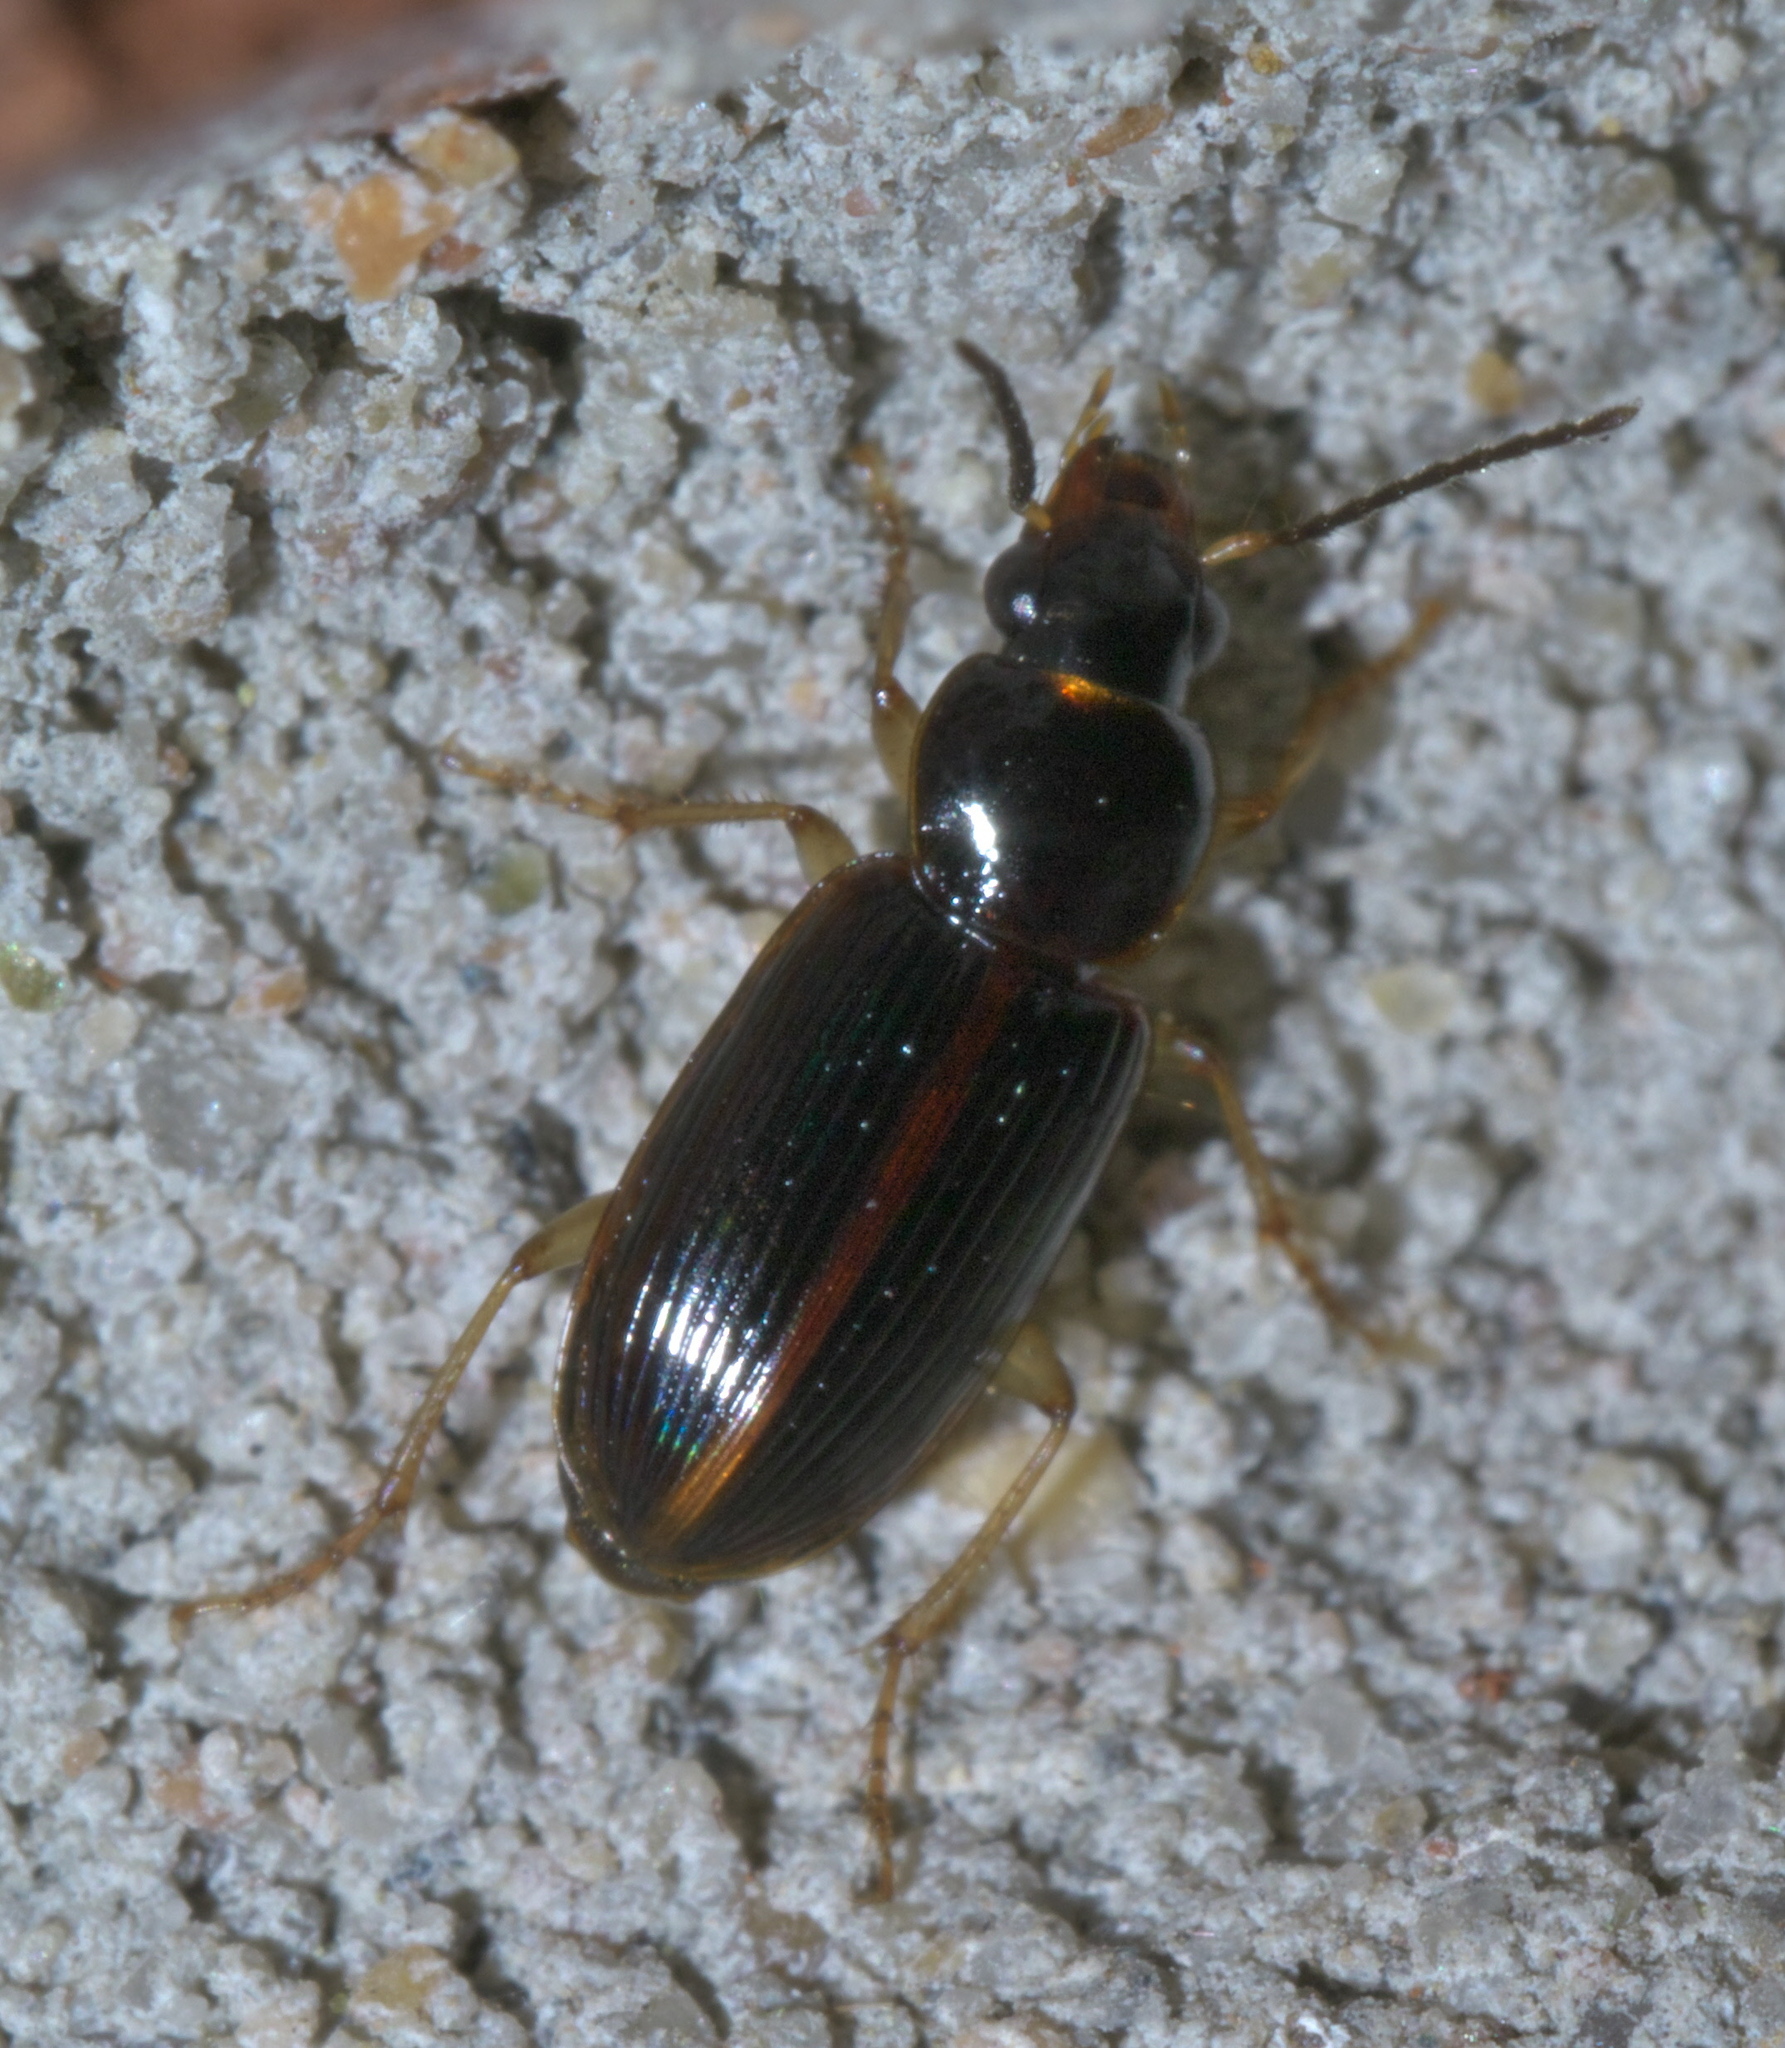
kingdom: Animalia
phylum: Arthropoda
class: Insecta
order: Coleoptera
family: Carabidae
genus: Stenolophus
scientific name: Stenolophus ochropezus
